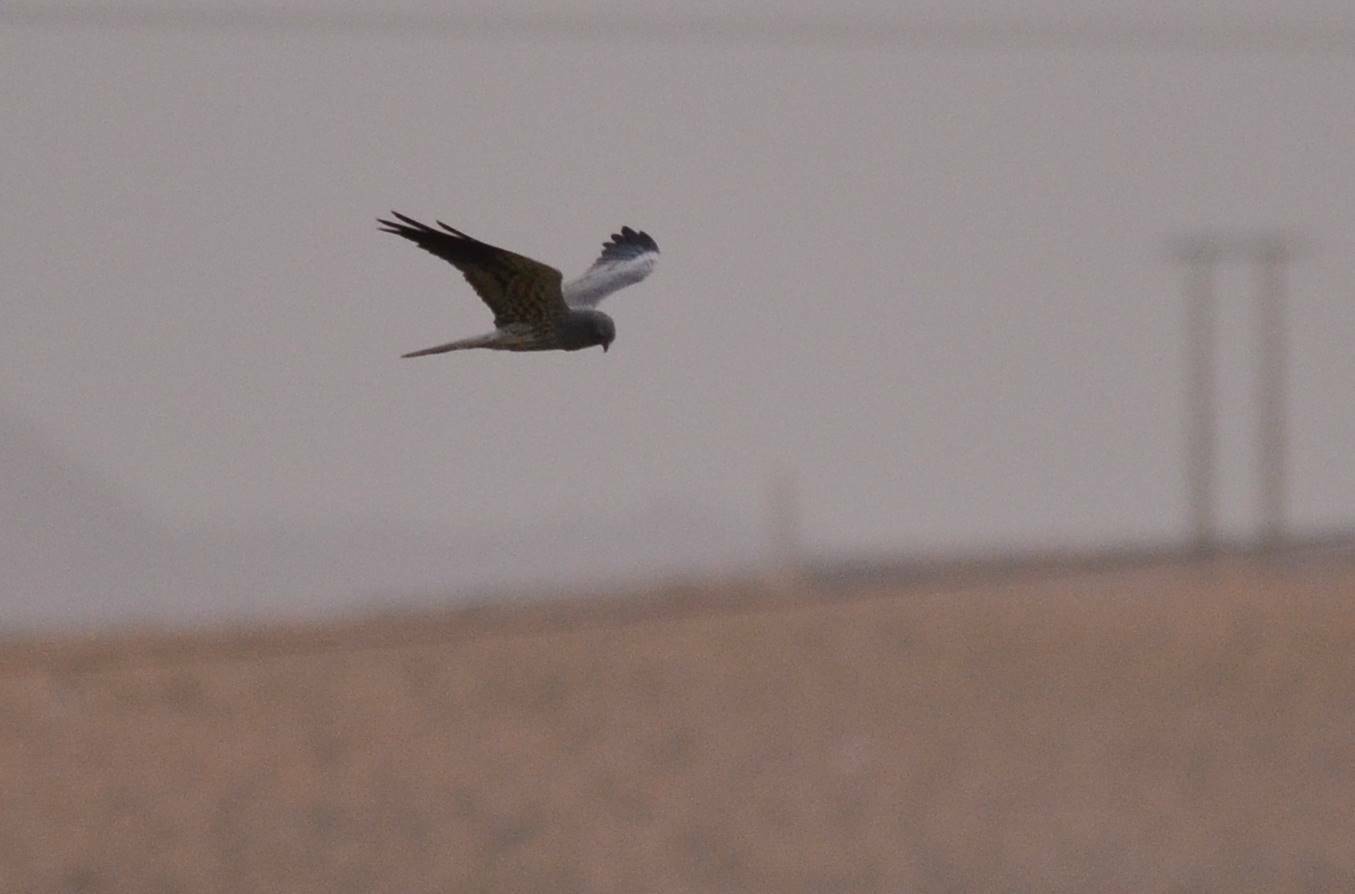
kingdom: Animalia
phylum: Chordata
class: Aves
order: Accipitriformes
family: Accipitridae
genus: Circus
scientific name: Circus pygargus
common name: Montagu's harrier
